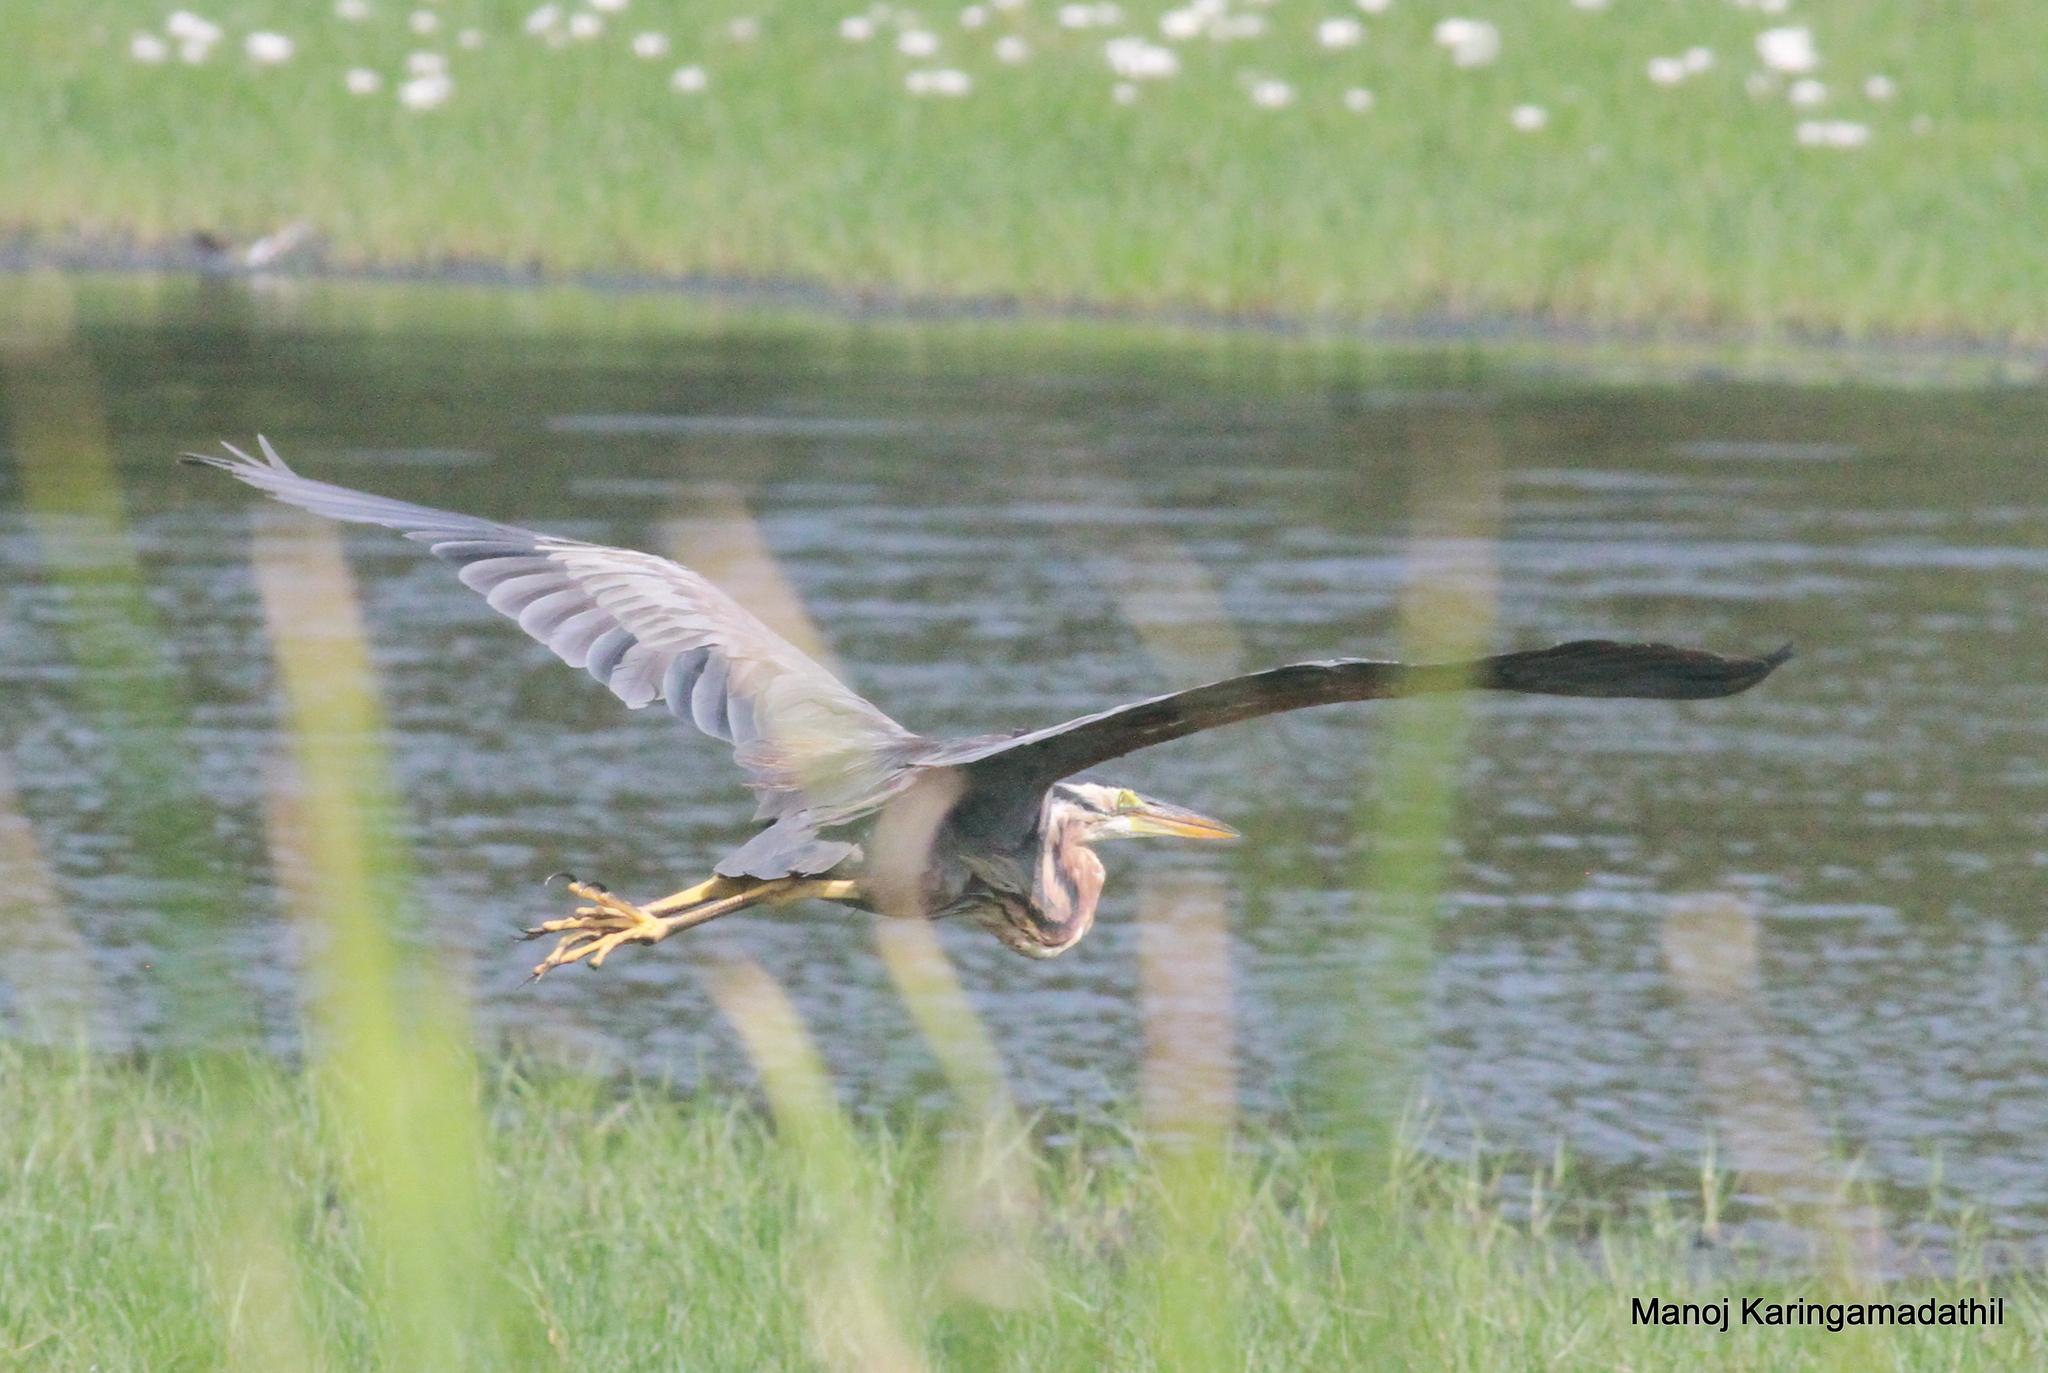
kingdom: Animalia
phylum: Chordata
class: Aves
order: Pelecaniformes
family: Ardeidae
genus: Ardea
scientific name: Ardea purpurea
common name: Purple heron
